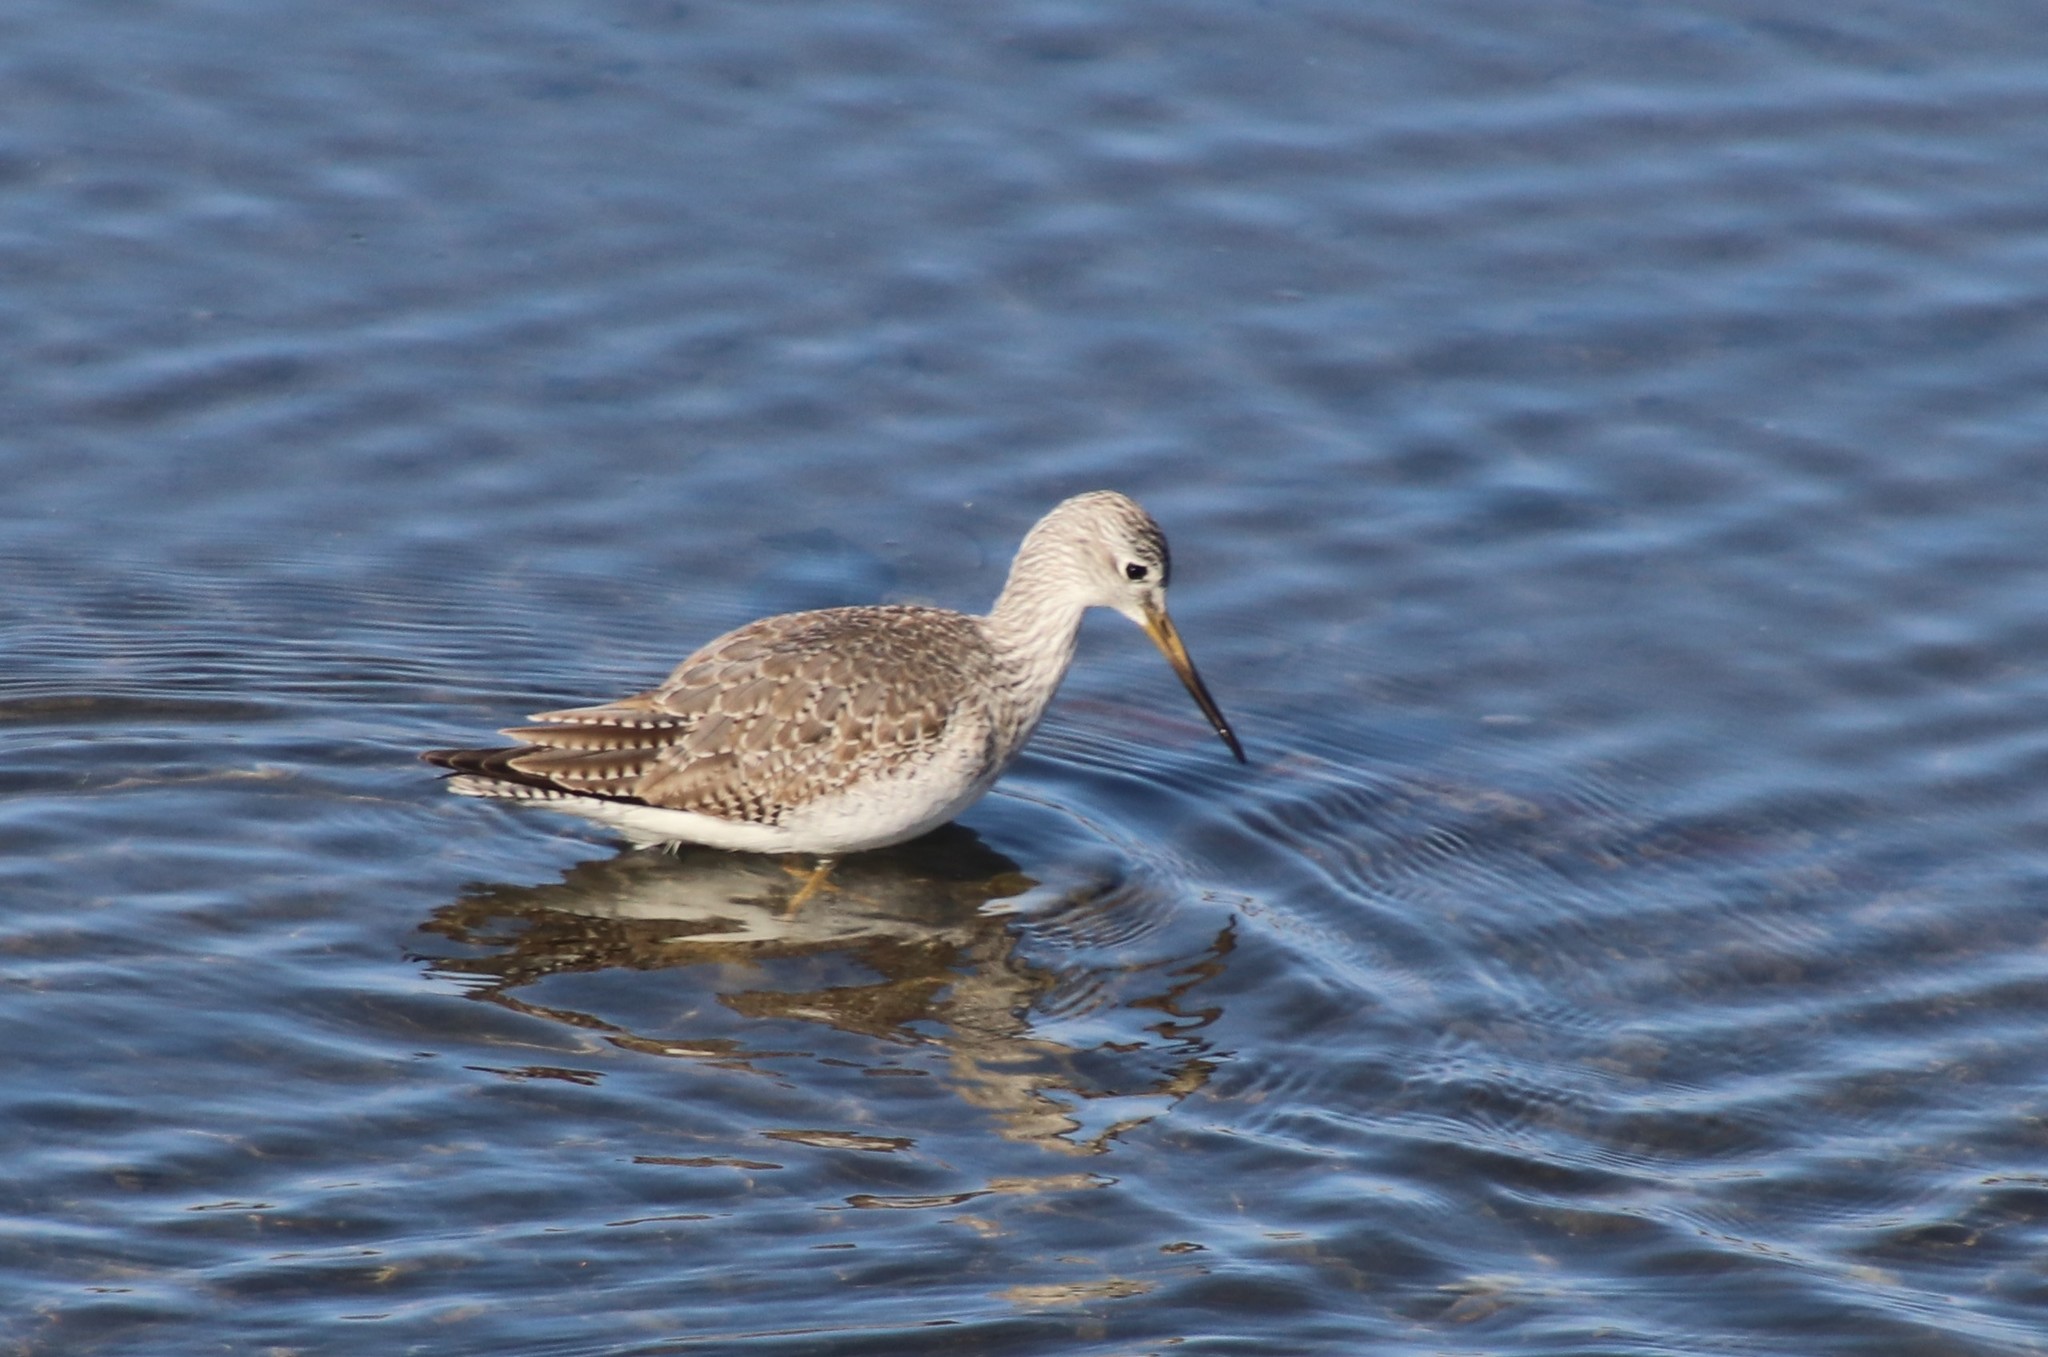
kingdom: Animalia
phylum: Chordata
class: Aves
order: Charadriiformes
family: Scolopacidae
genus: Tringa
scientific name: Tringa melanoleuca
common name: Greater yellowlegs
